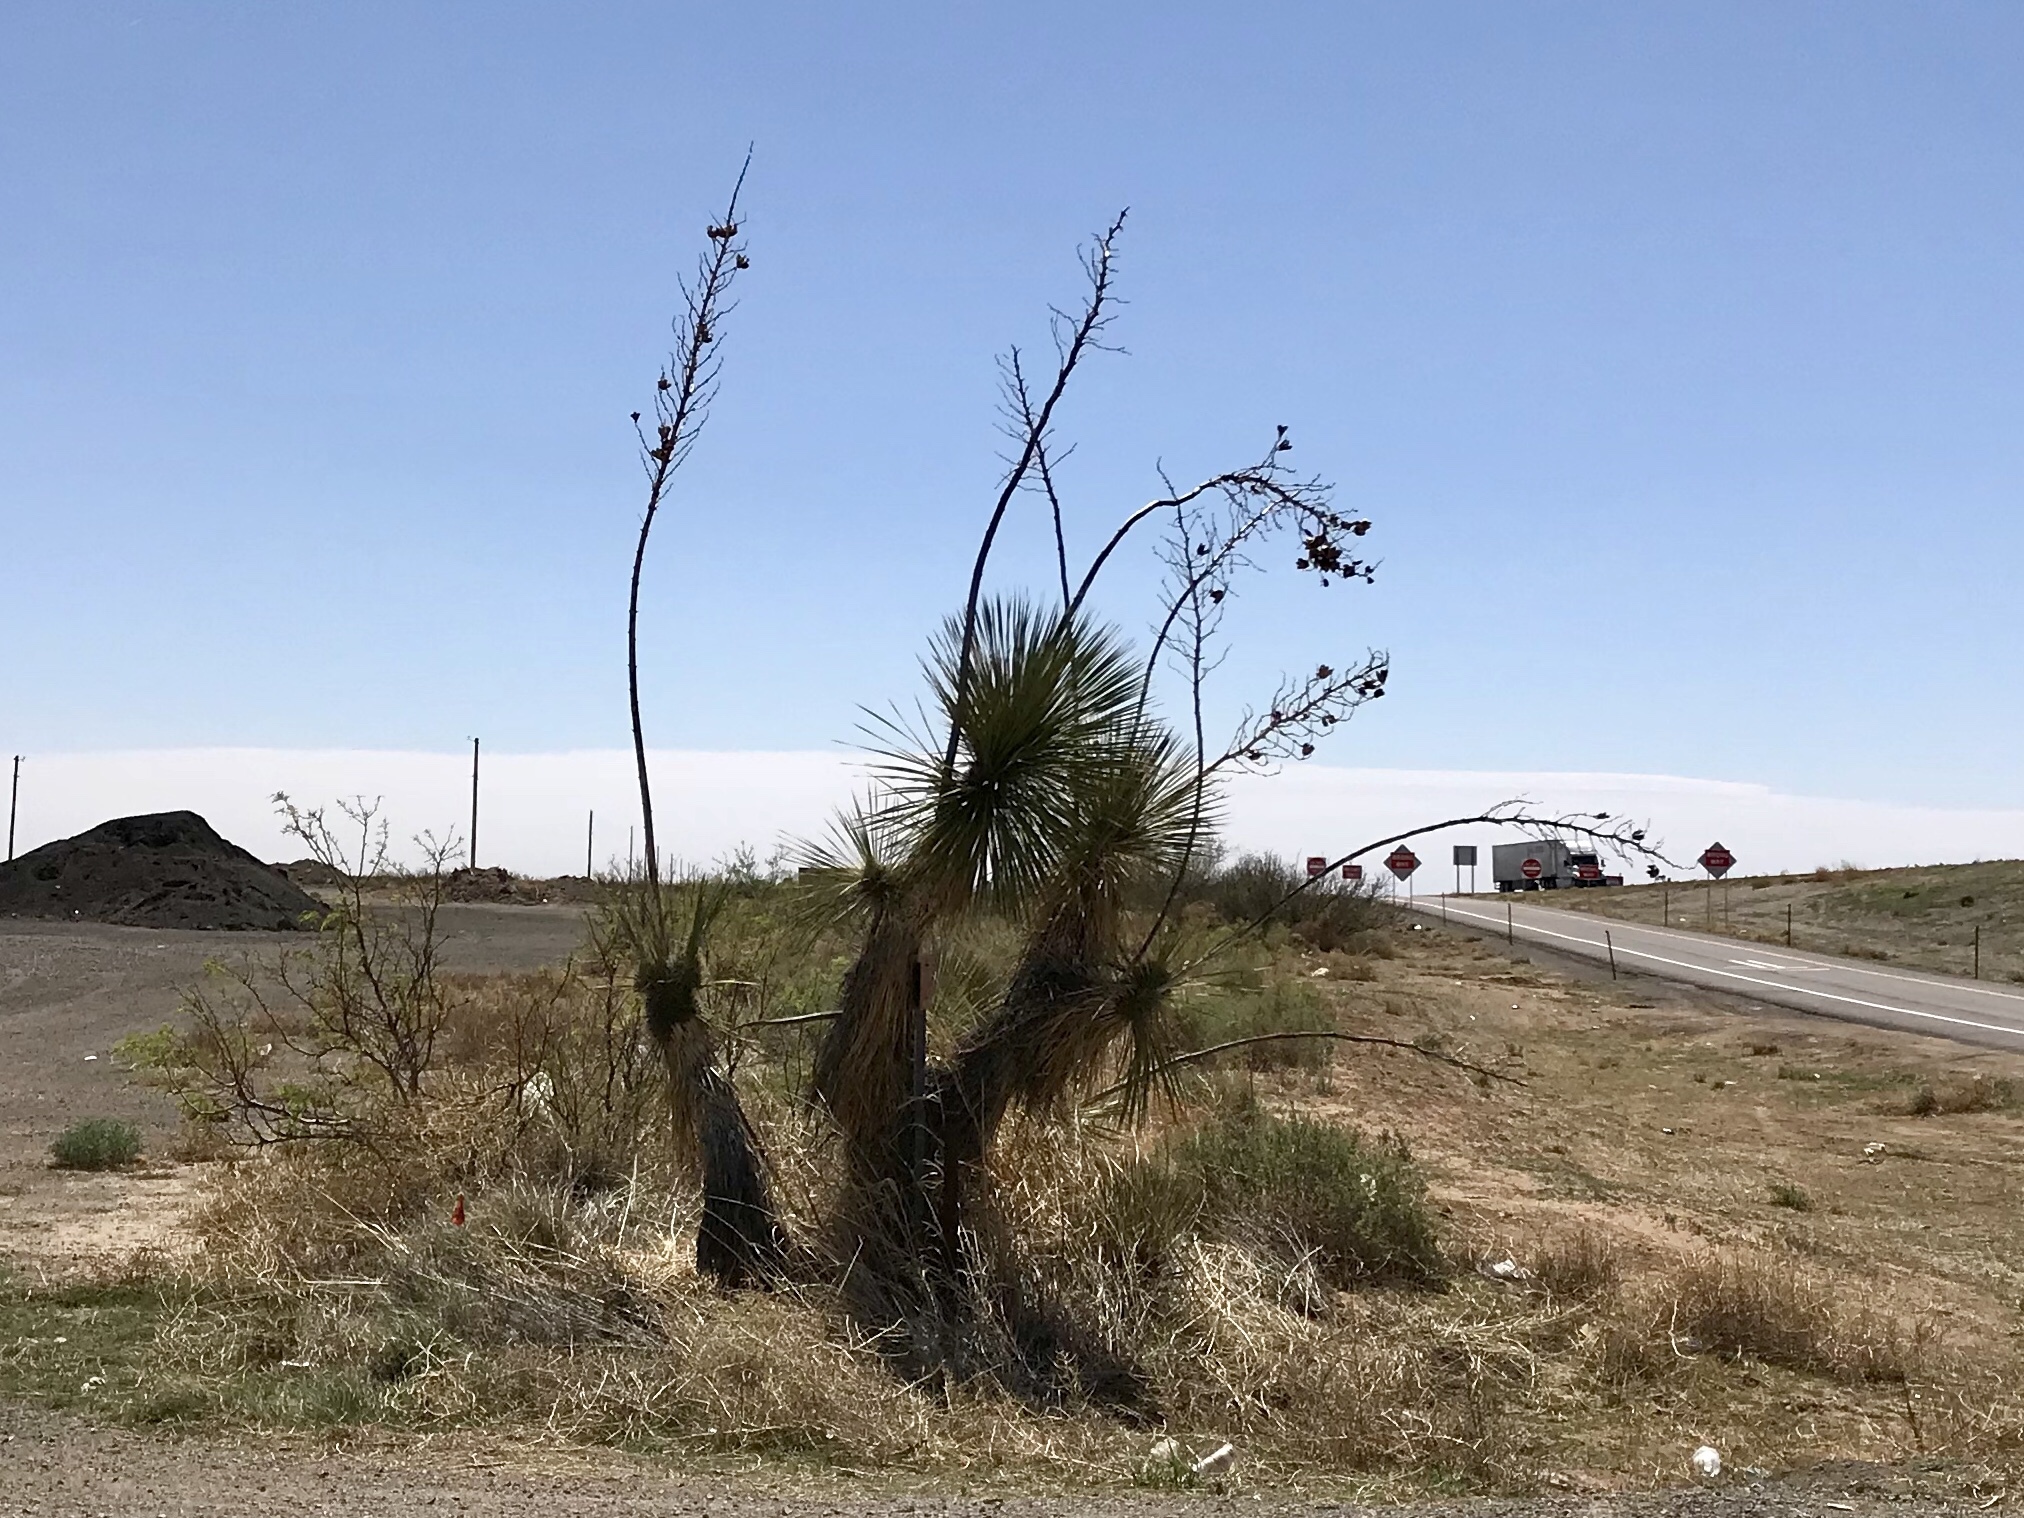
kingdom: Plantae
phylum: Tracheophyta
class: Liliopsida
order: Asparagales
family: Asparagaceae
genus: Yucca
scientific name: Yucca elata
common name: Palmella
